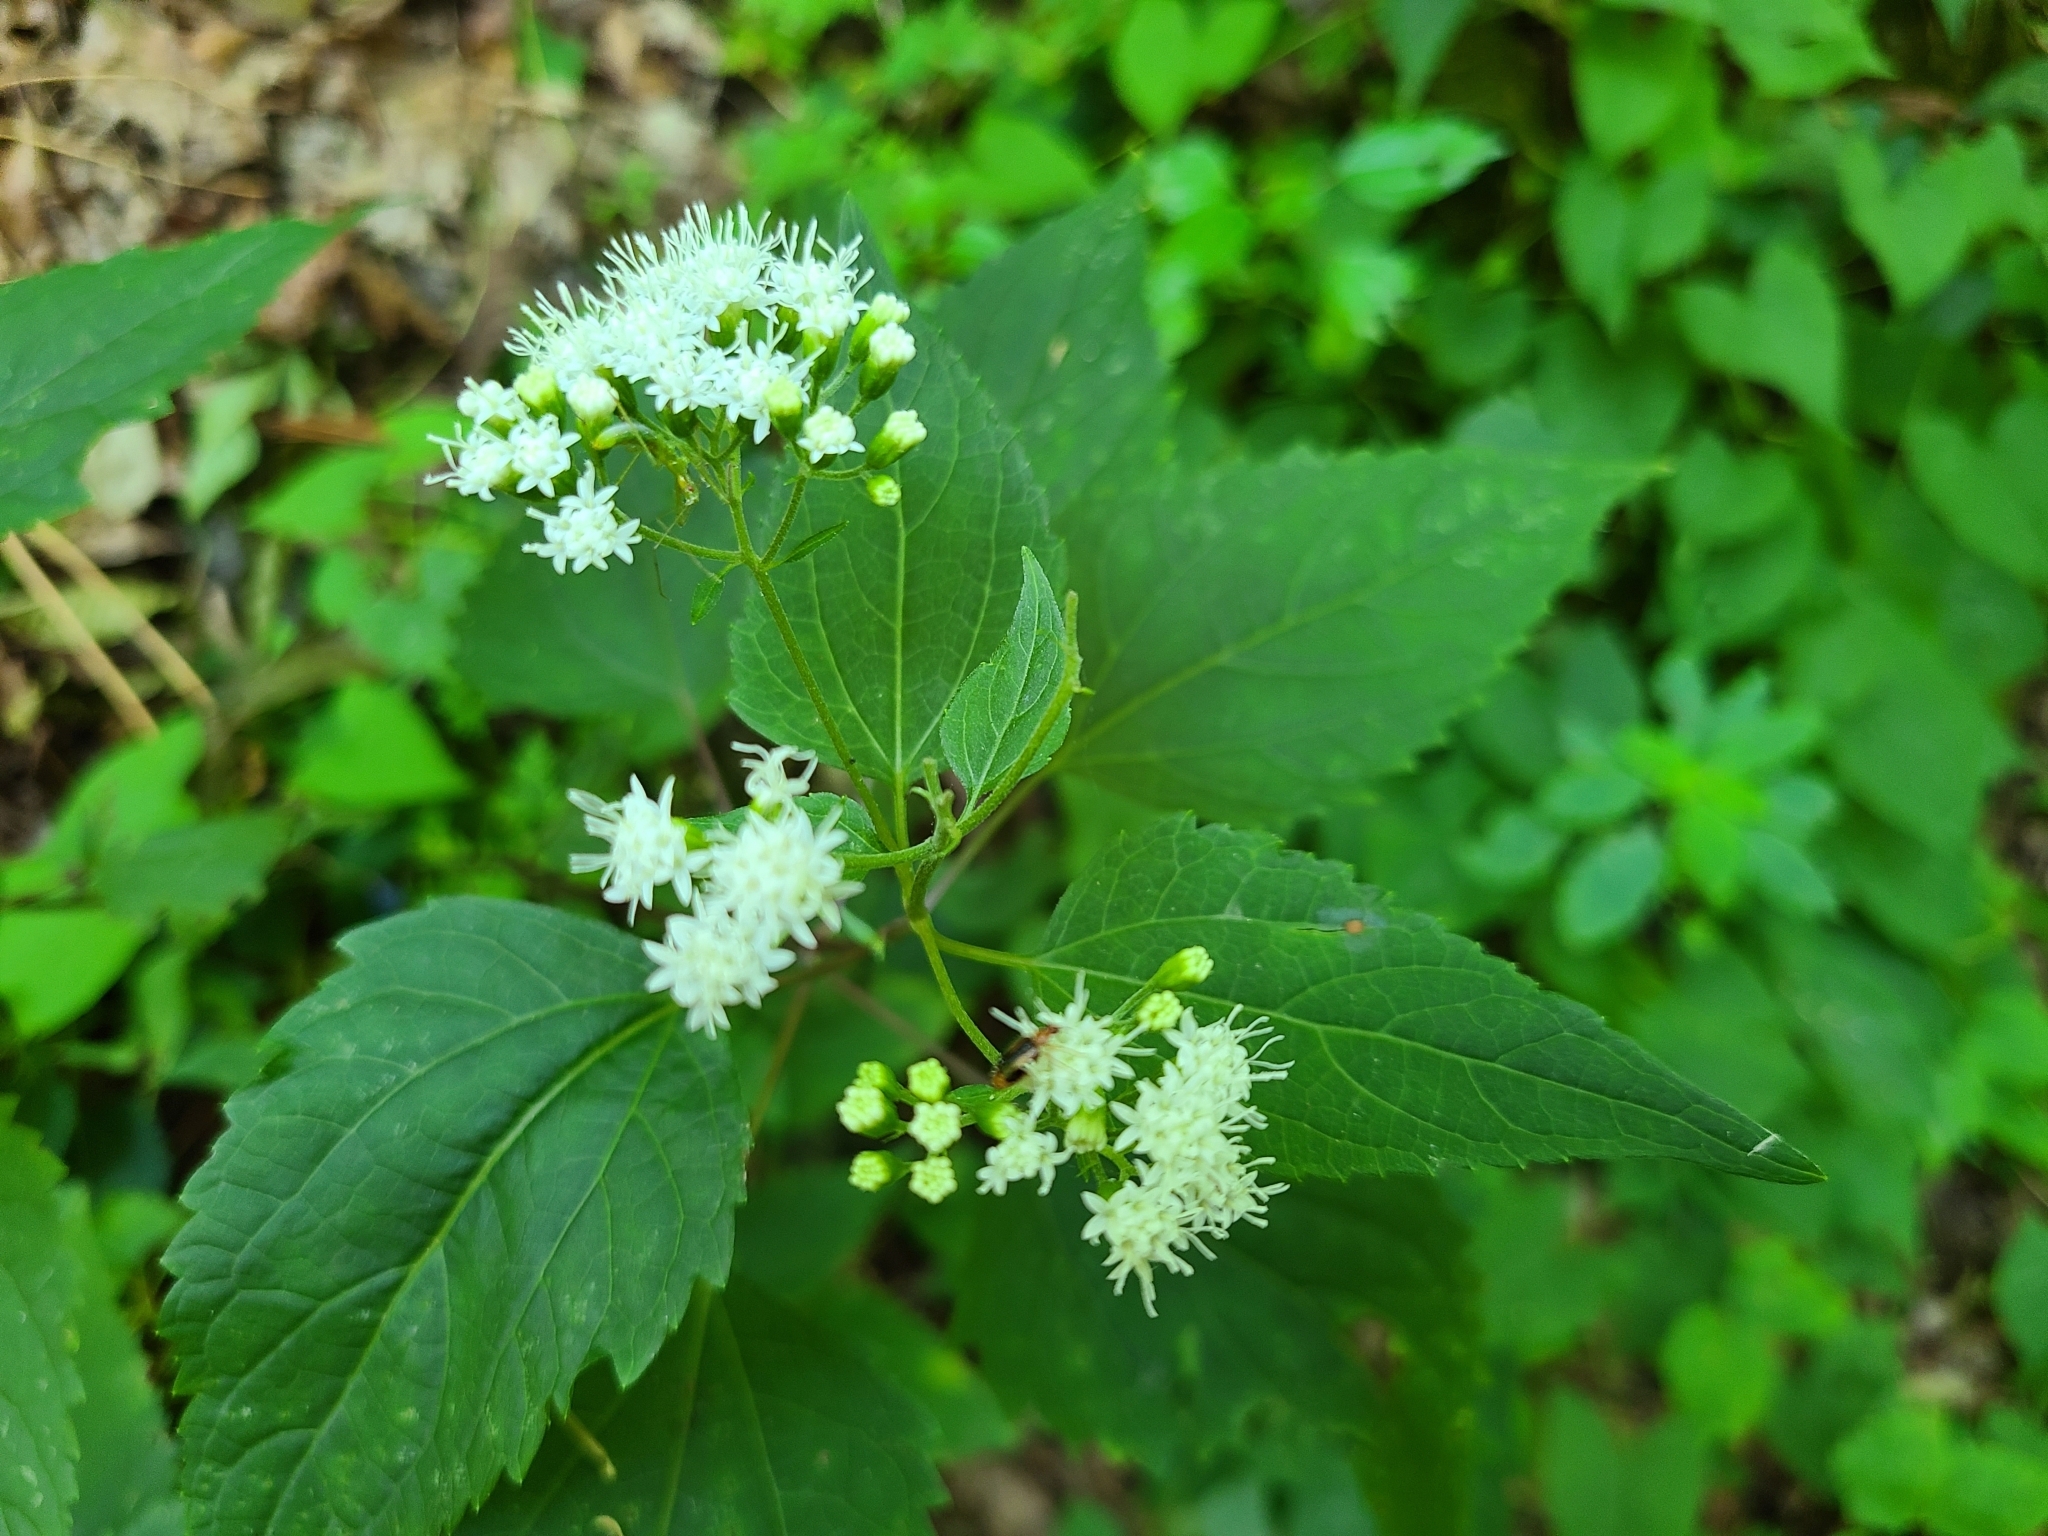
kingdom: Plantae
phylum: Tracheophyta
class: Magnoliopsida
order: Asterales
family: Asteraceae
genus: Ageratina
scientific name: Ageratina altissima
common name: White snakeroot
